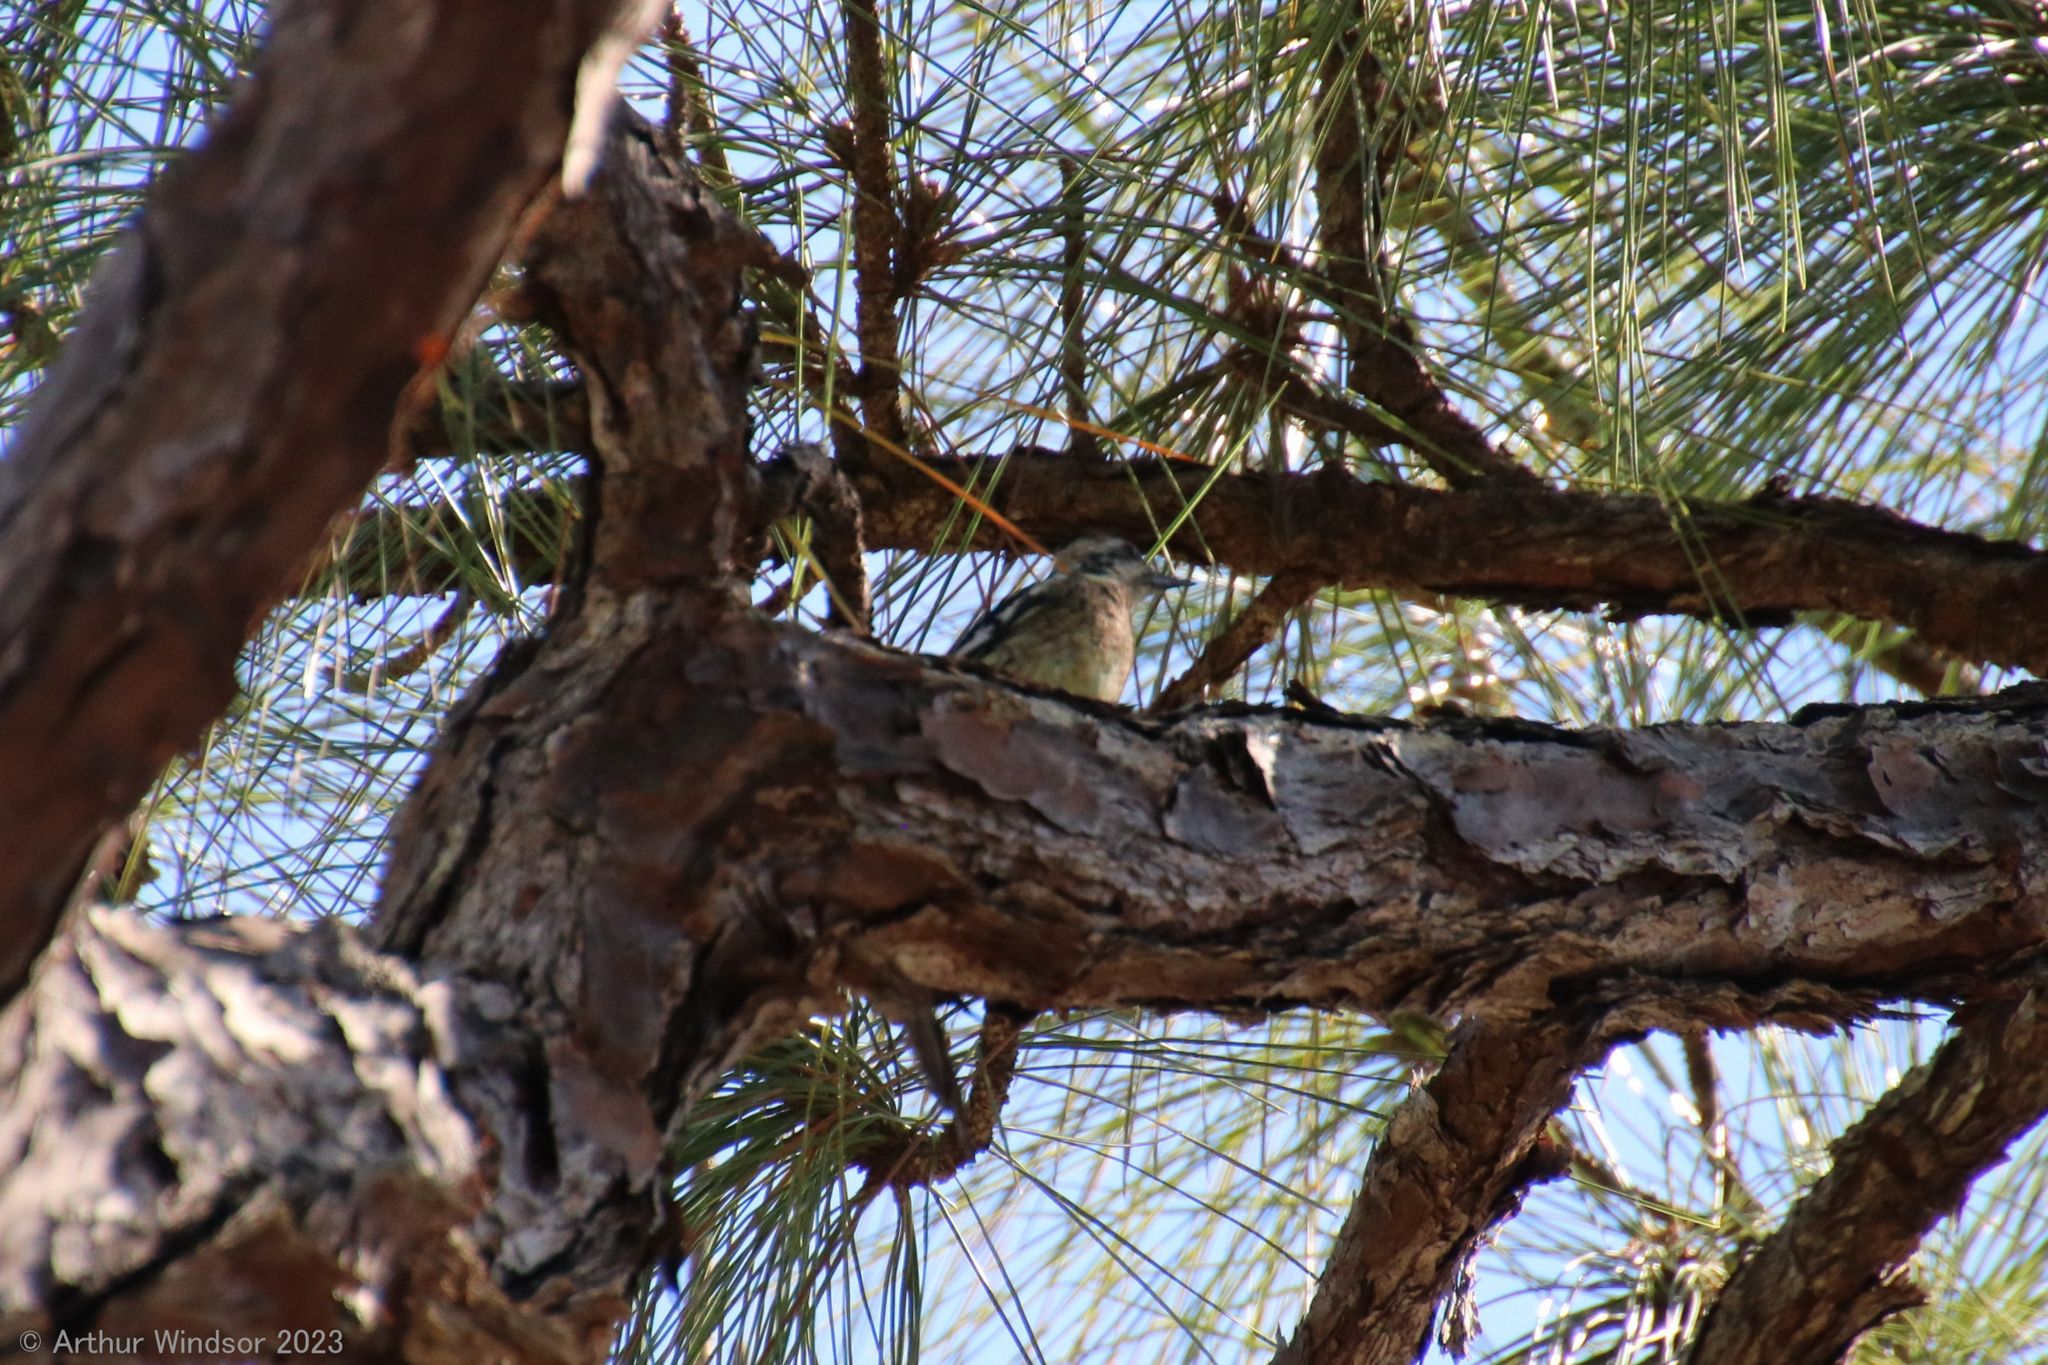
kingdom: Animalia
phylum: Chordata
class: Aves
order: Piciformes
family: Picidae
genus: Sphyrapicus
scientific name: Sphyrapicus varius
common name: Yellow-bellied sapsucker
